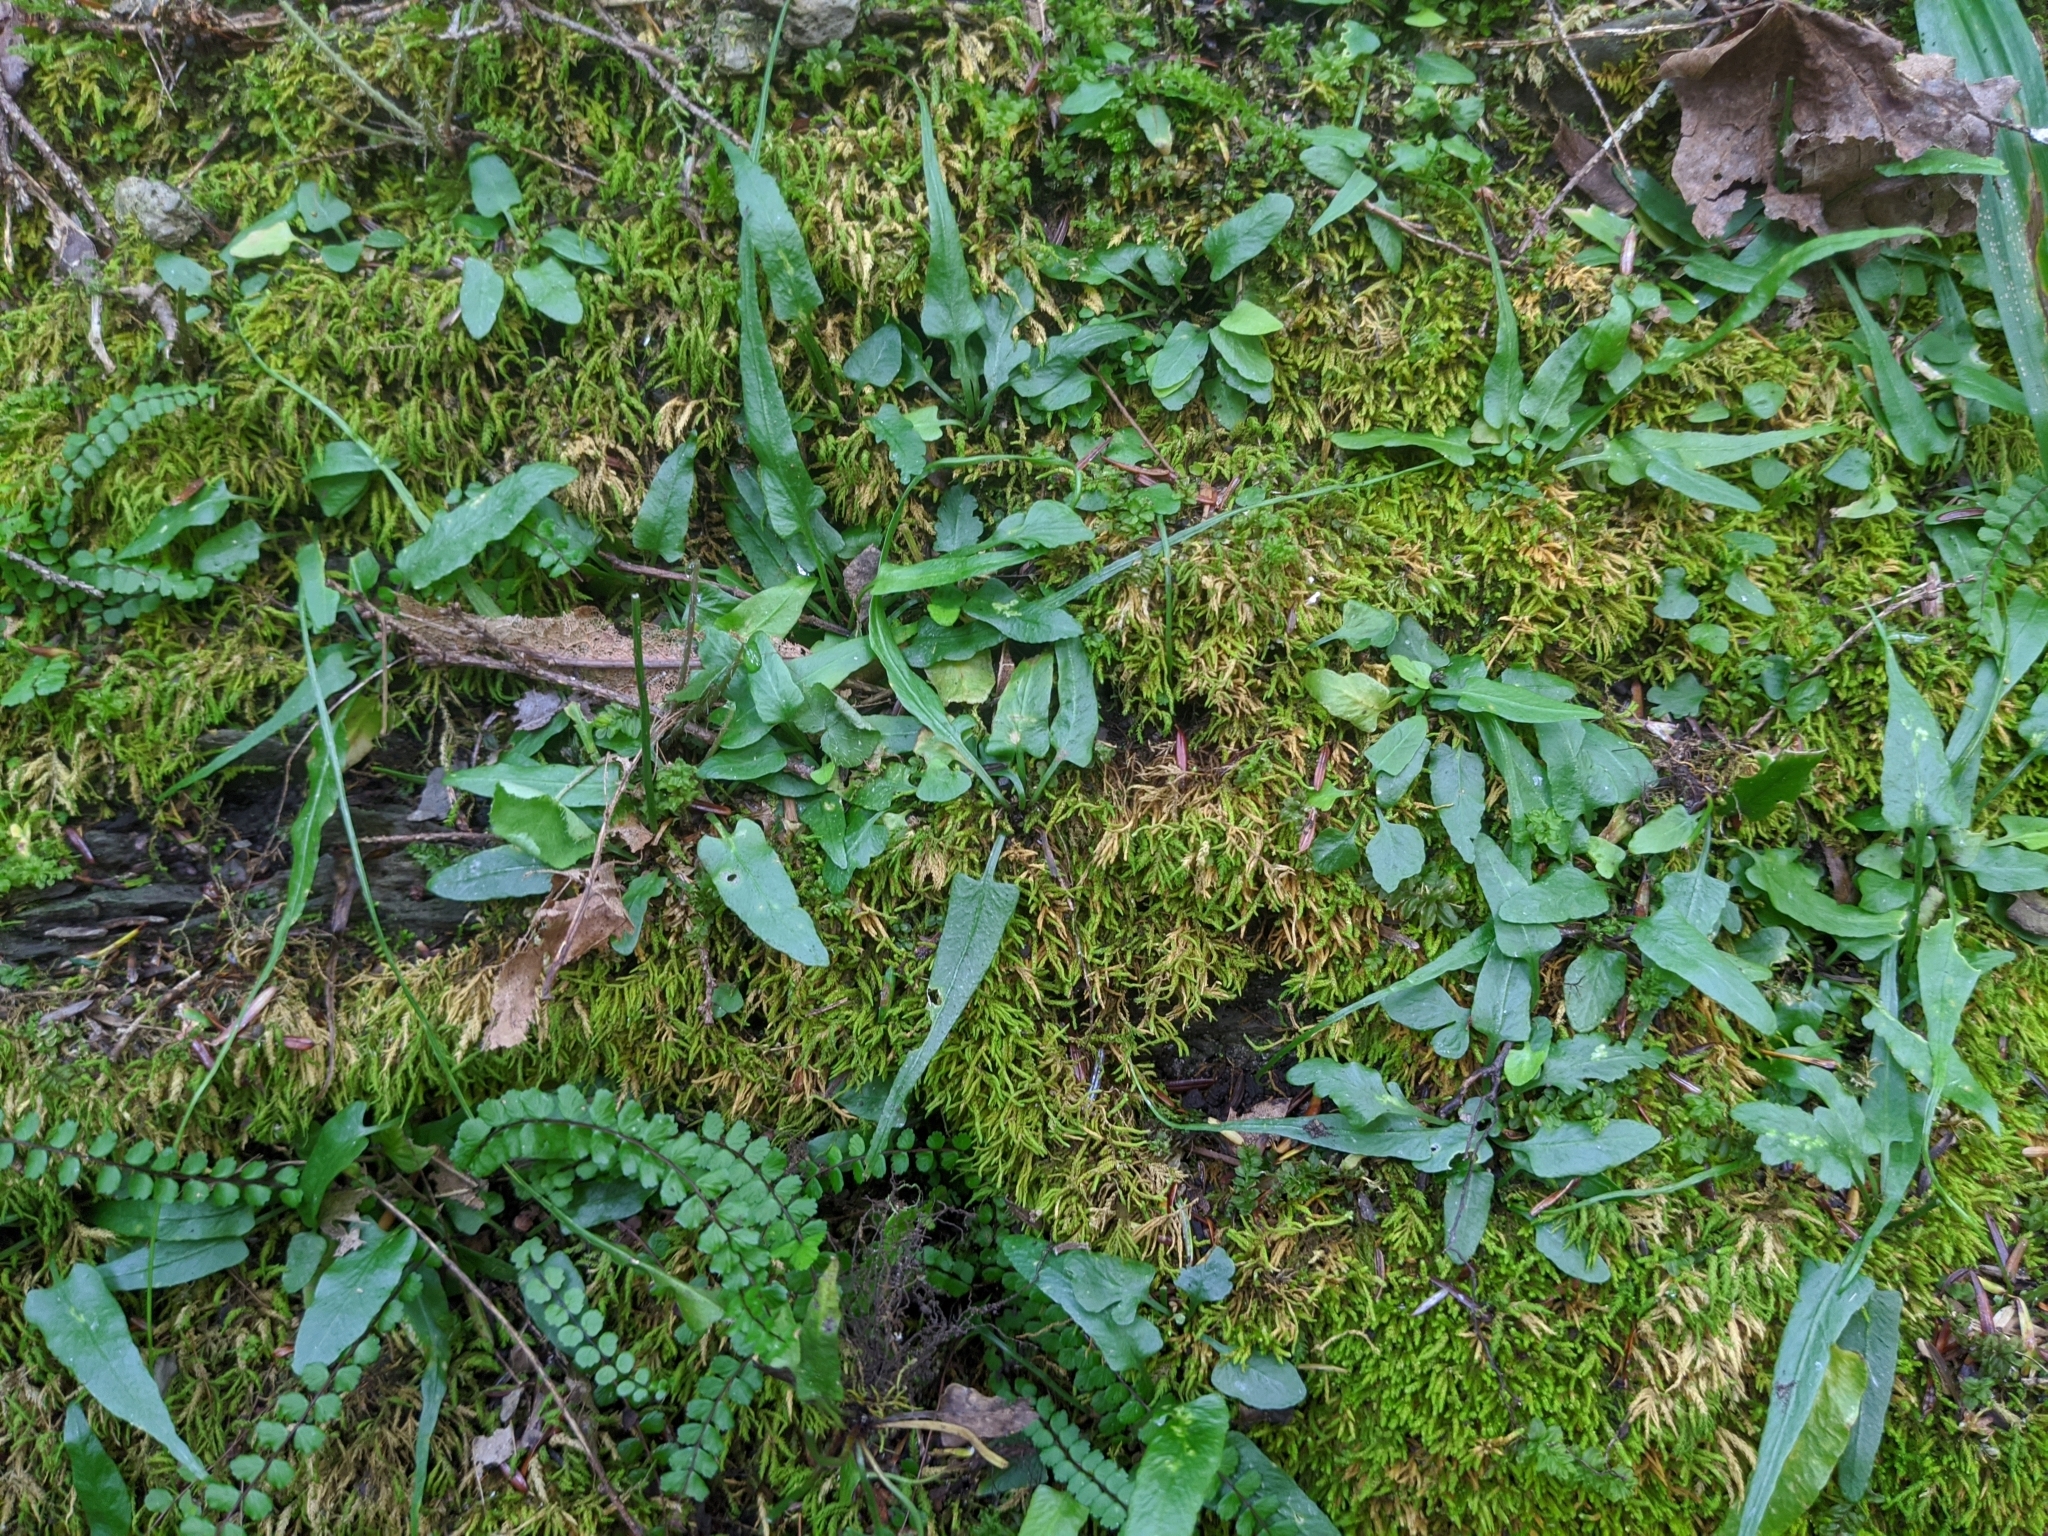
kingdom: Plantae
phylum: Tracheophyta
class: Polypodiopsida
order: Polypodiales
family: Aspleniaceae
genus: Asplenium
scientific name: Asplenium rhizophyllum
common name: Walking fern
